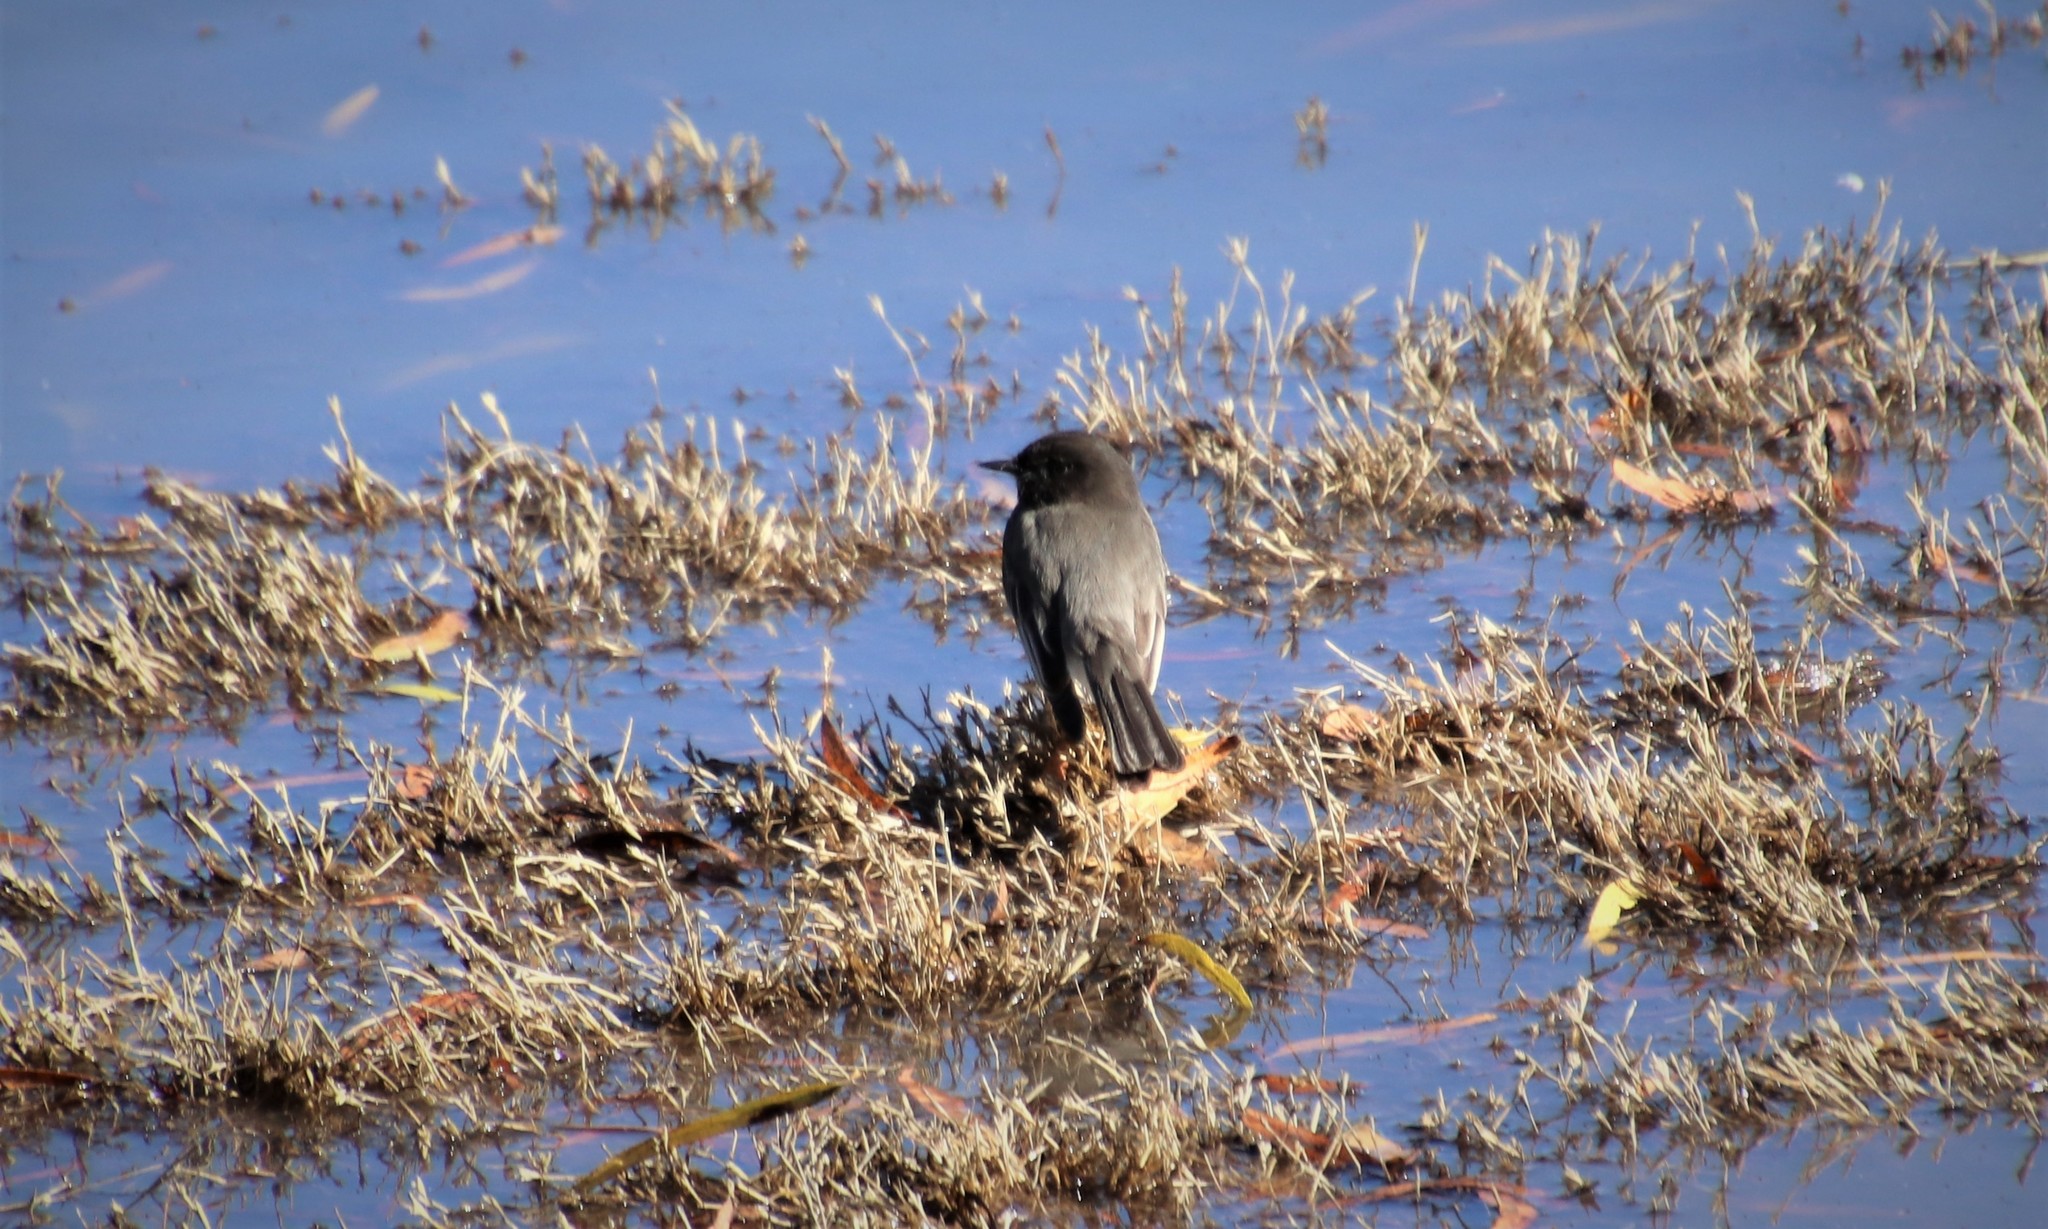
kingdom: Animalia
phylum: Chordata
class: Aves
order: Passeriformes
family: Tyrannidae
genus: Sayornis
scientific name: Sayornis nigricans
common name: Black phoebe
